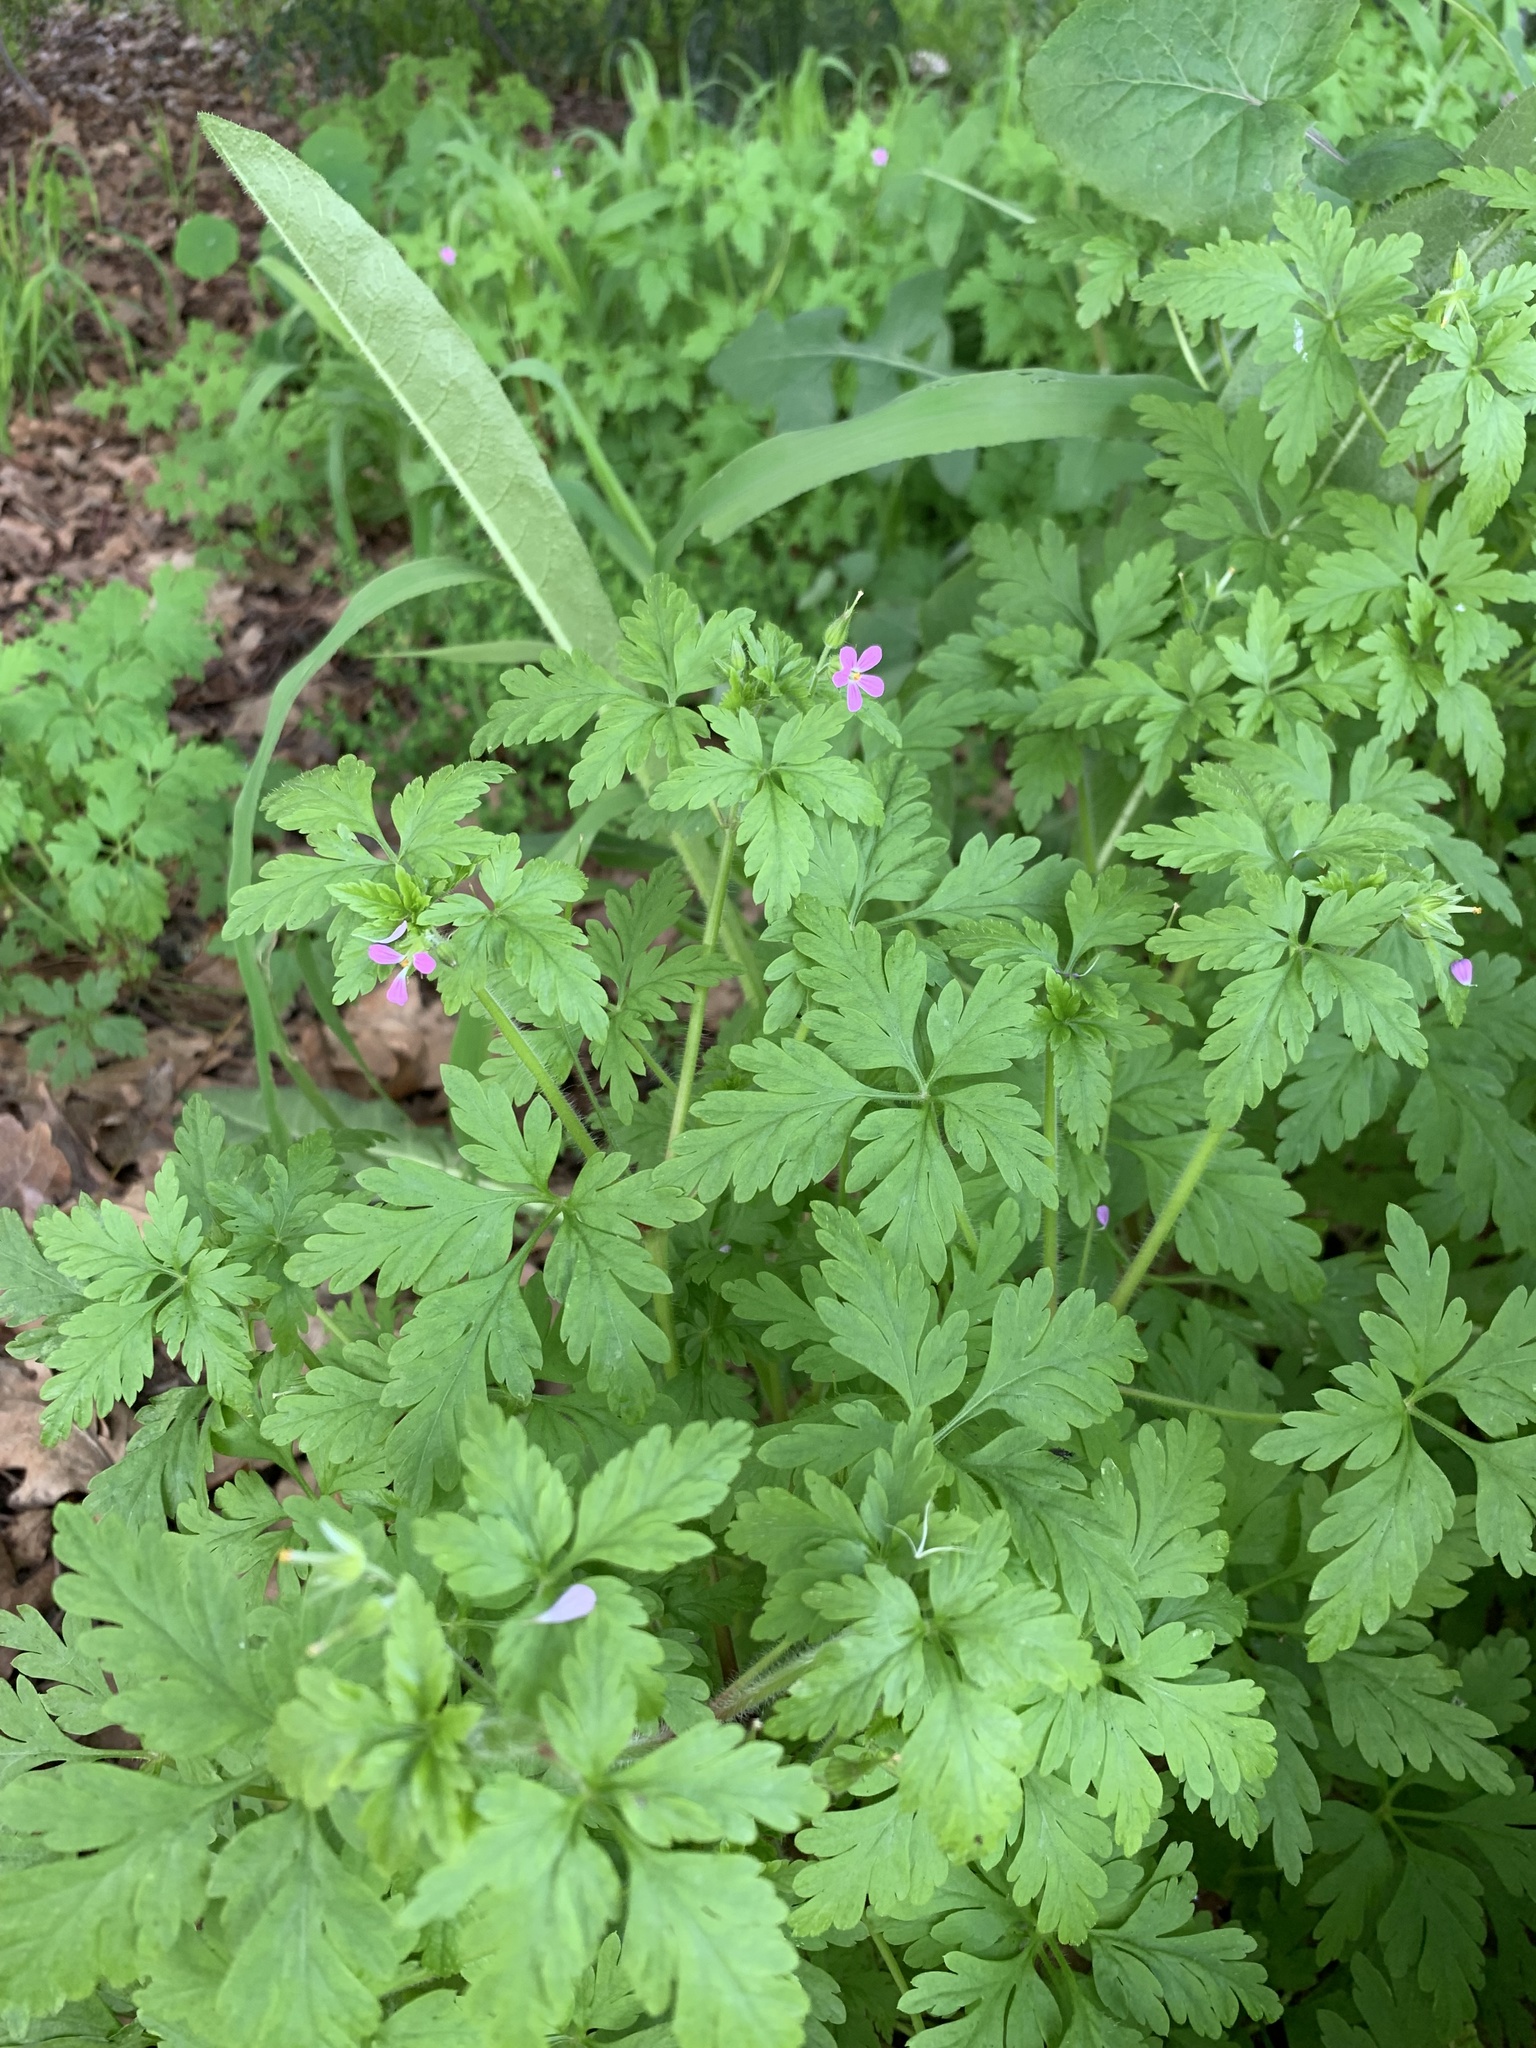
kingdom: Plantae
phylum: Tracheophyta
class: Magnoliopsida
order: Geraniales
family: Geraniaceae
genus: Geranium
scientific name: Geranium purpureum
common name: Little-robin
